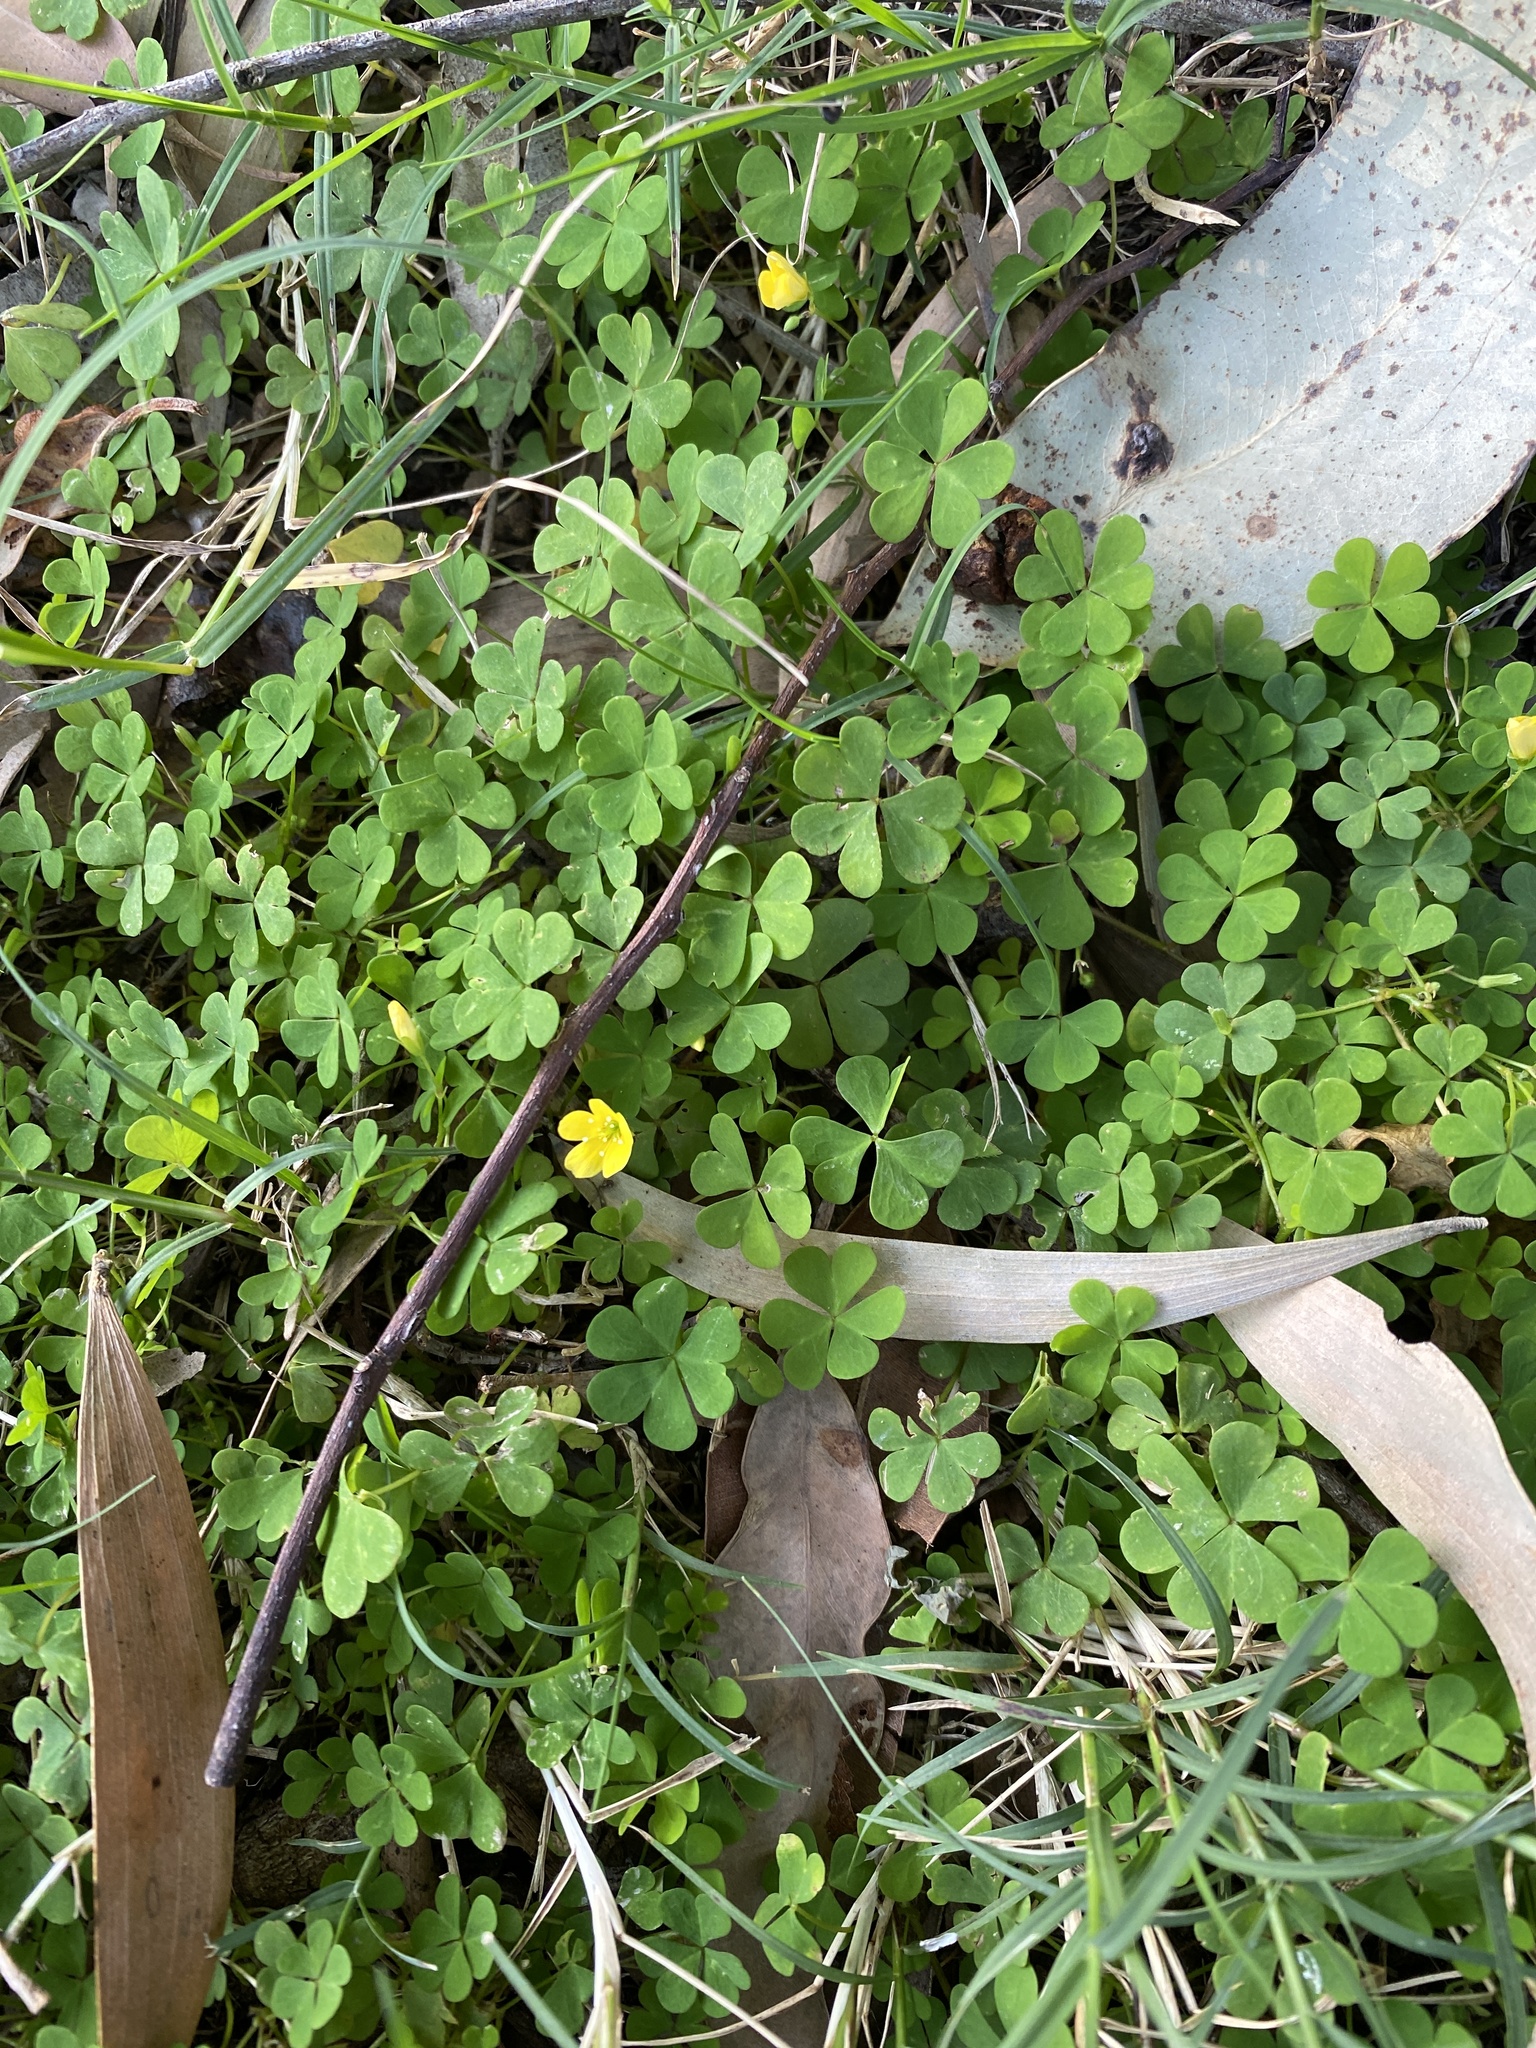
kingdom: Plantae
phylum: Tracheophyta
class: Magnoliopsida
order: Oxalidales
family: Oxalidaceae
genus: Oxalis
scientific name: Oxalis corniculata
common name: Procumbent yellow-sorrel
